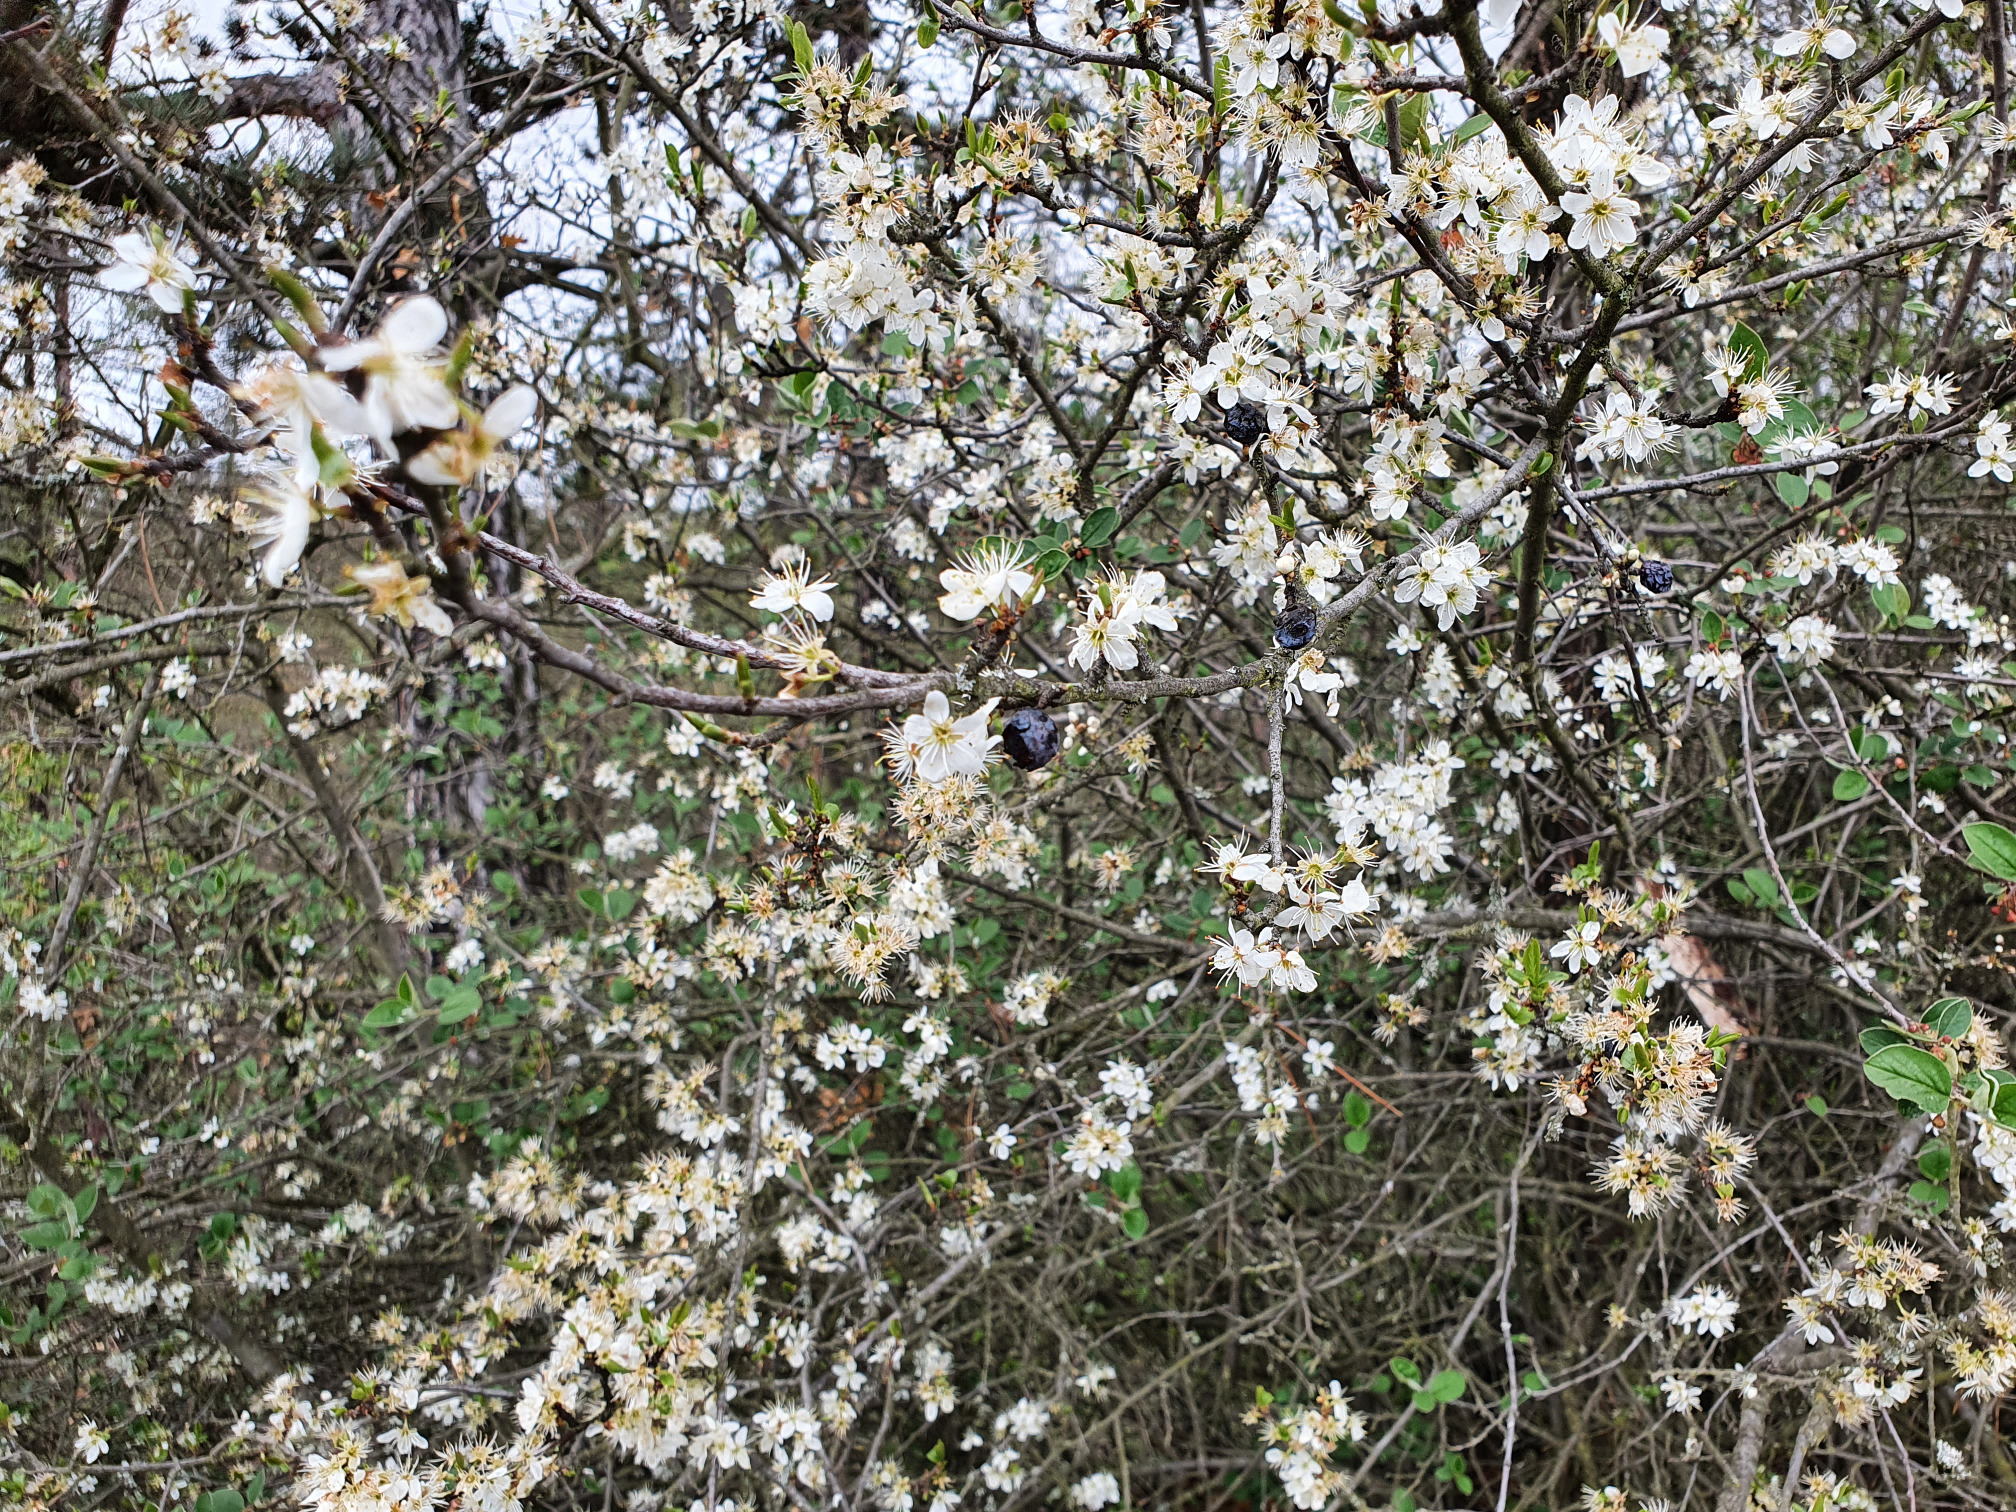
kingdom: Plantae
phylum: Tracheophyta
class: Magnoliopsida
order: Rosales
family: Rosaceae
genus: Prunus
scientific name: Prunus spinosa
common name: Blackthorn
